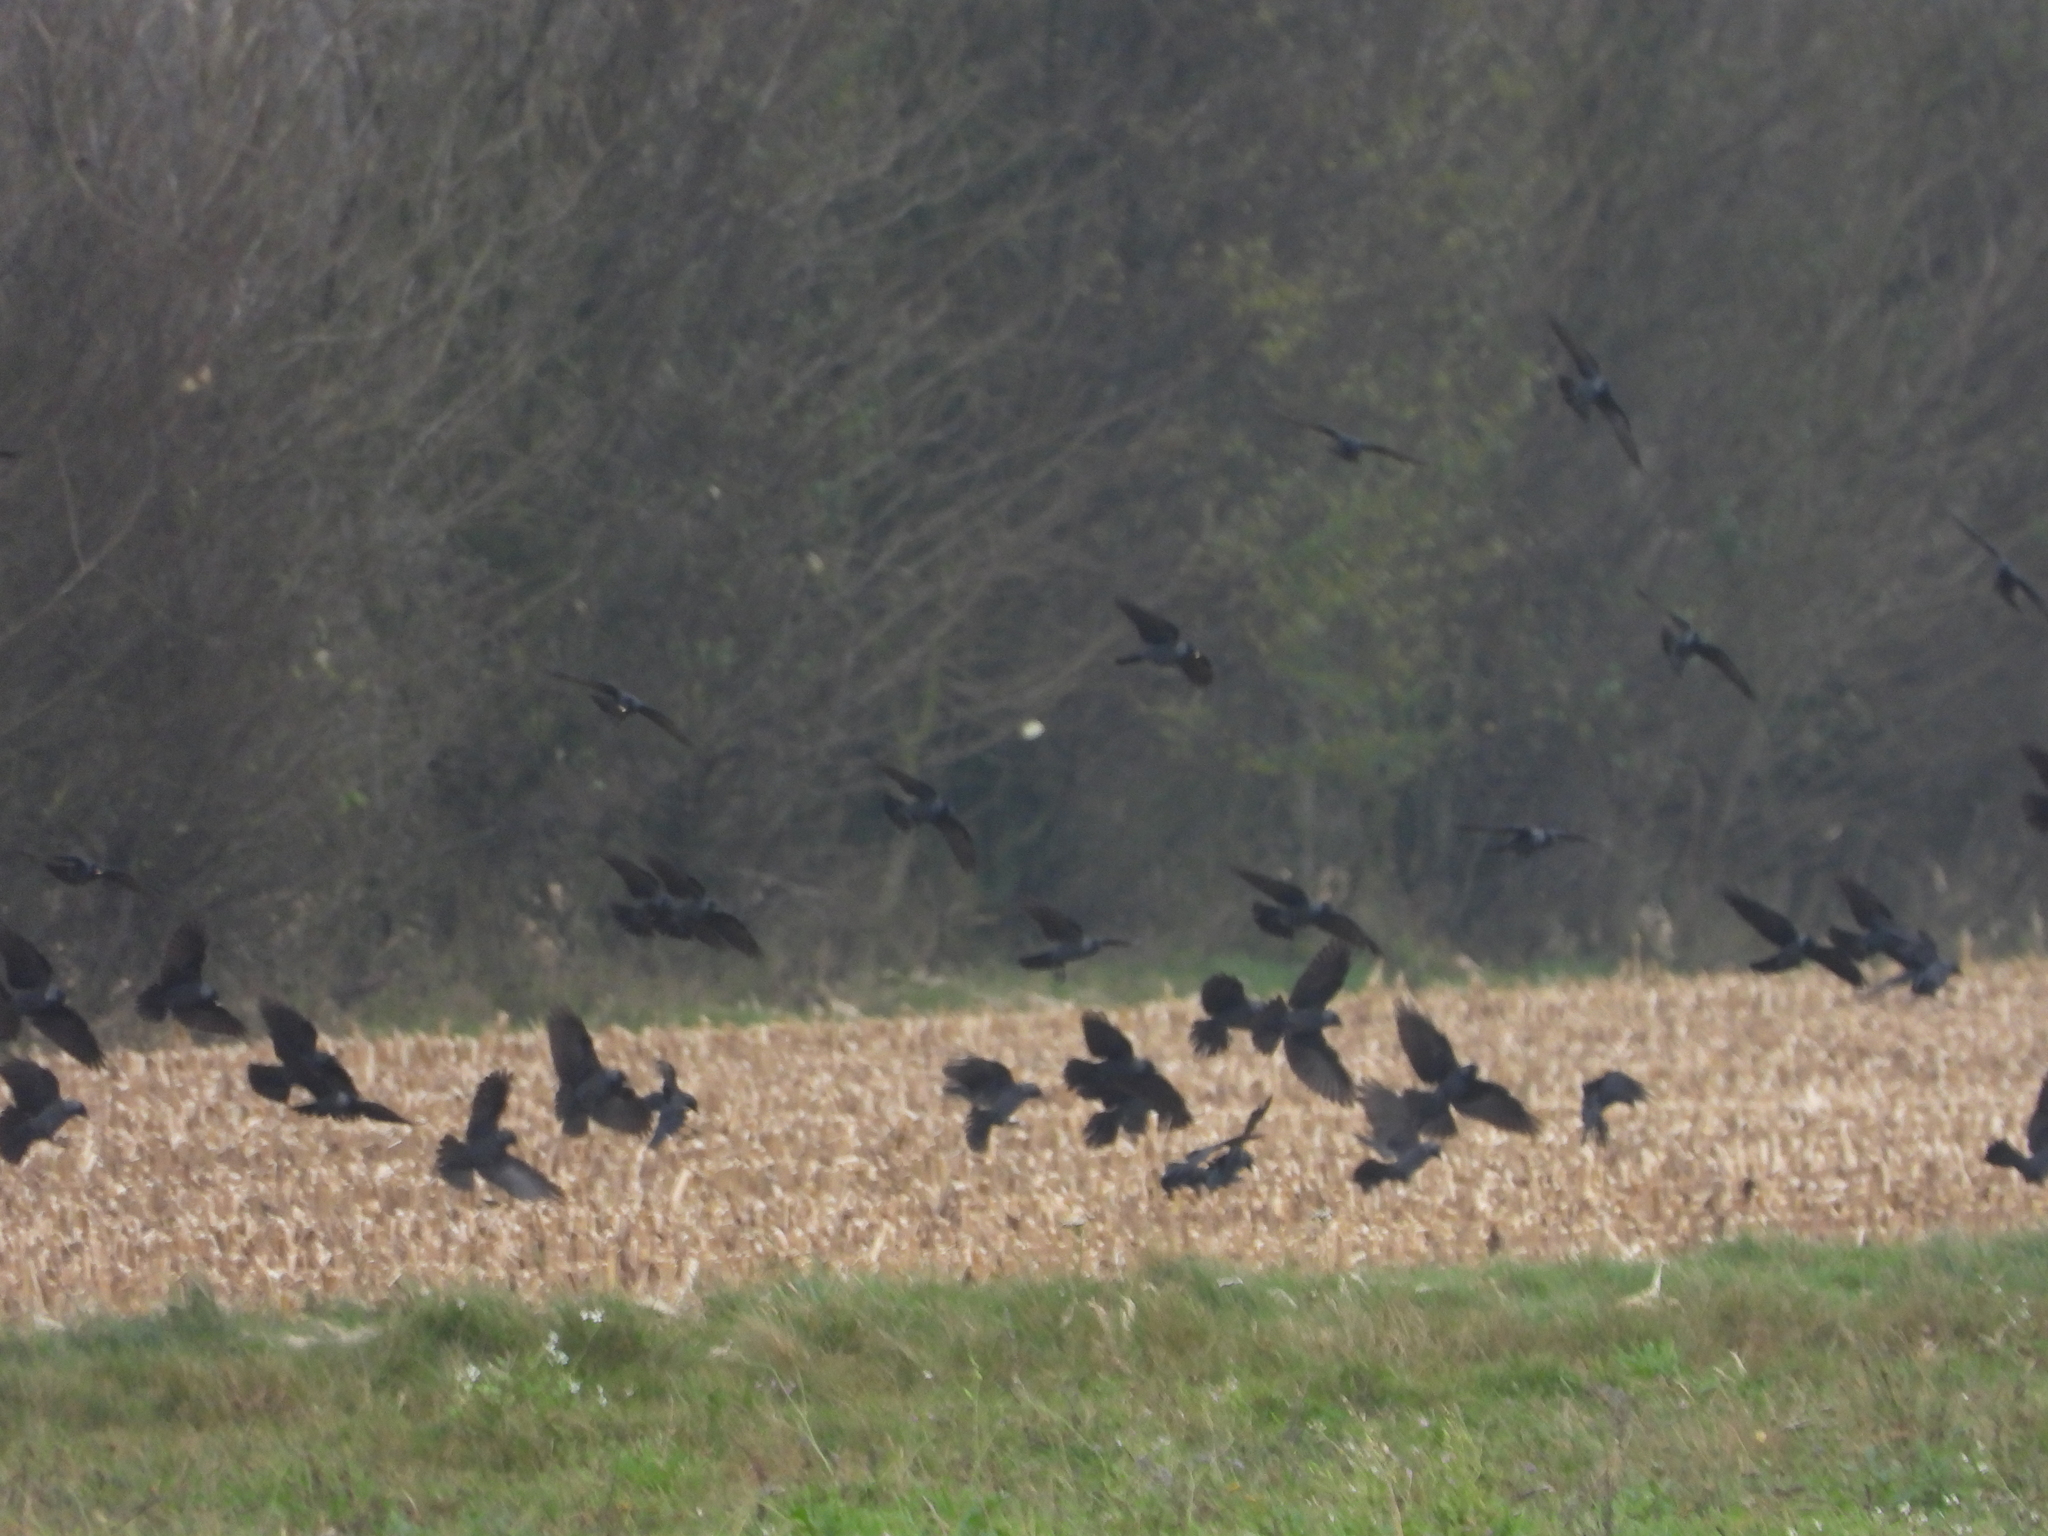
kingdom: Animalia
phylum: Chordata
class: Aves
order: Passeriformes
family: Corvidae
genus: Coloeus
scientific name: Coloeus monedula
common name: Western jackdaw
